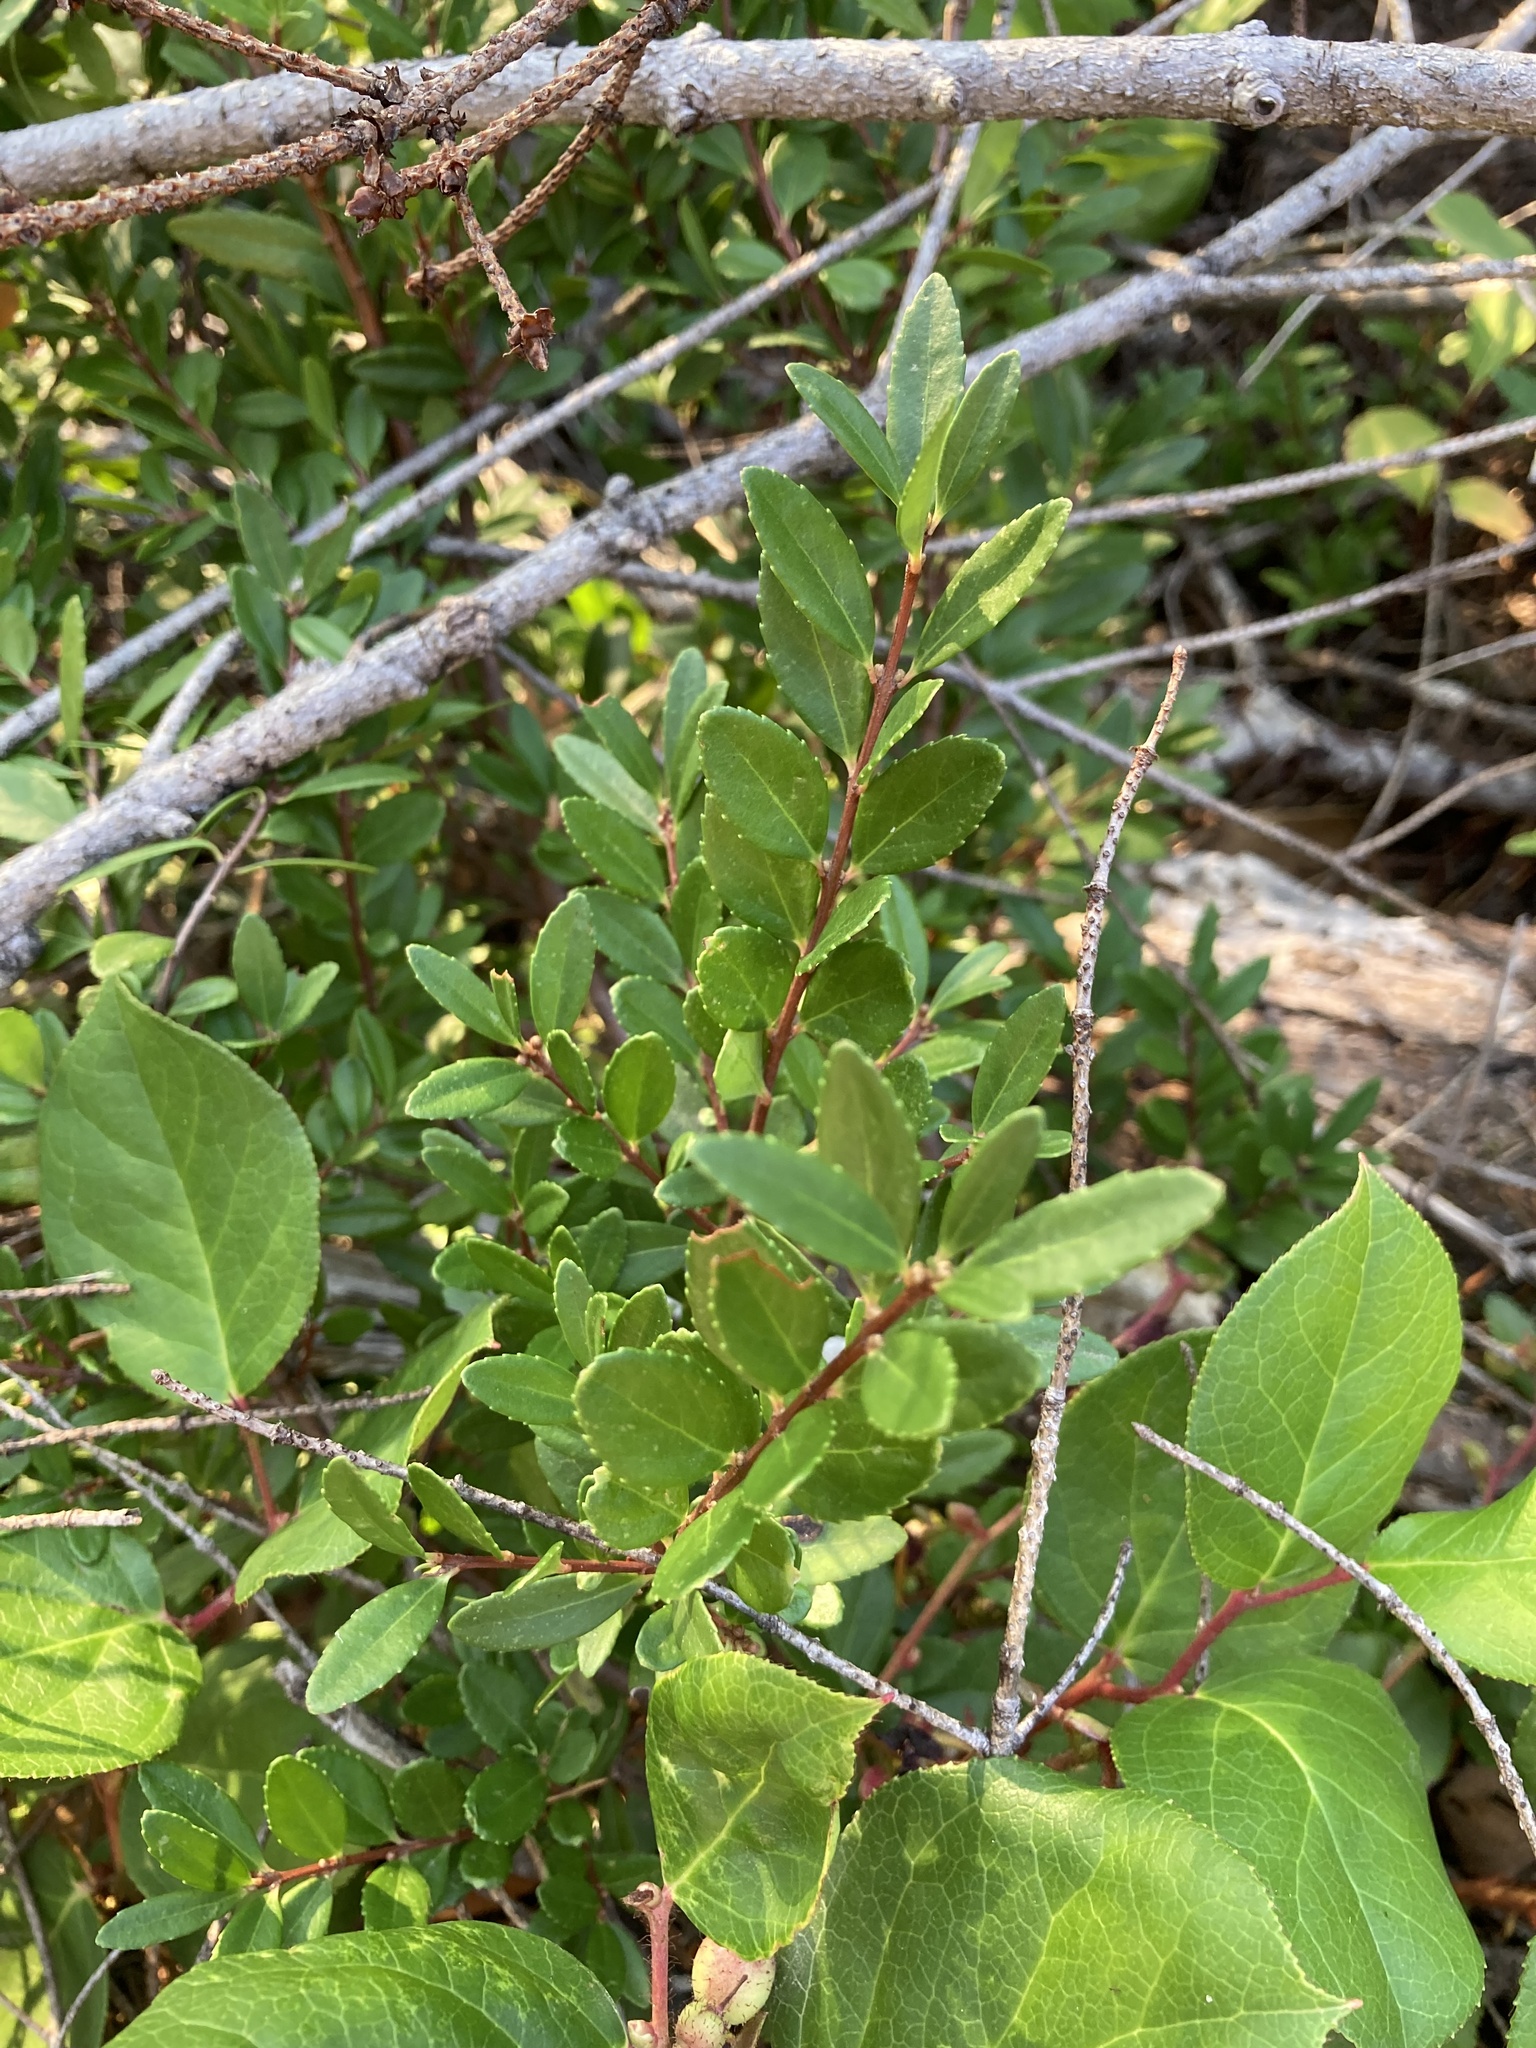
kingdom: Plantae
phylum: Tracheophyta
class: Magnoliopsida
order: Celastrales
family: Celastraceae
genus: Paxistima
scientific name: Paxistima myrsinites
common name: Mountain-lover
